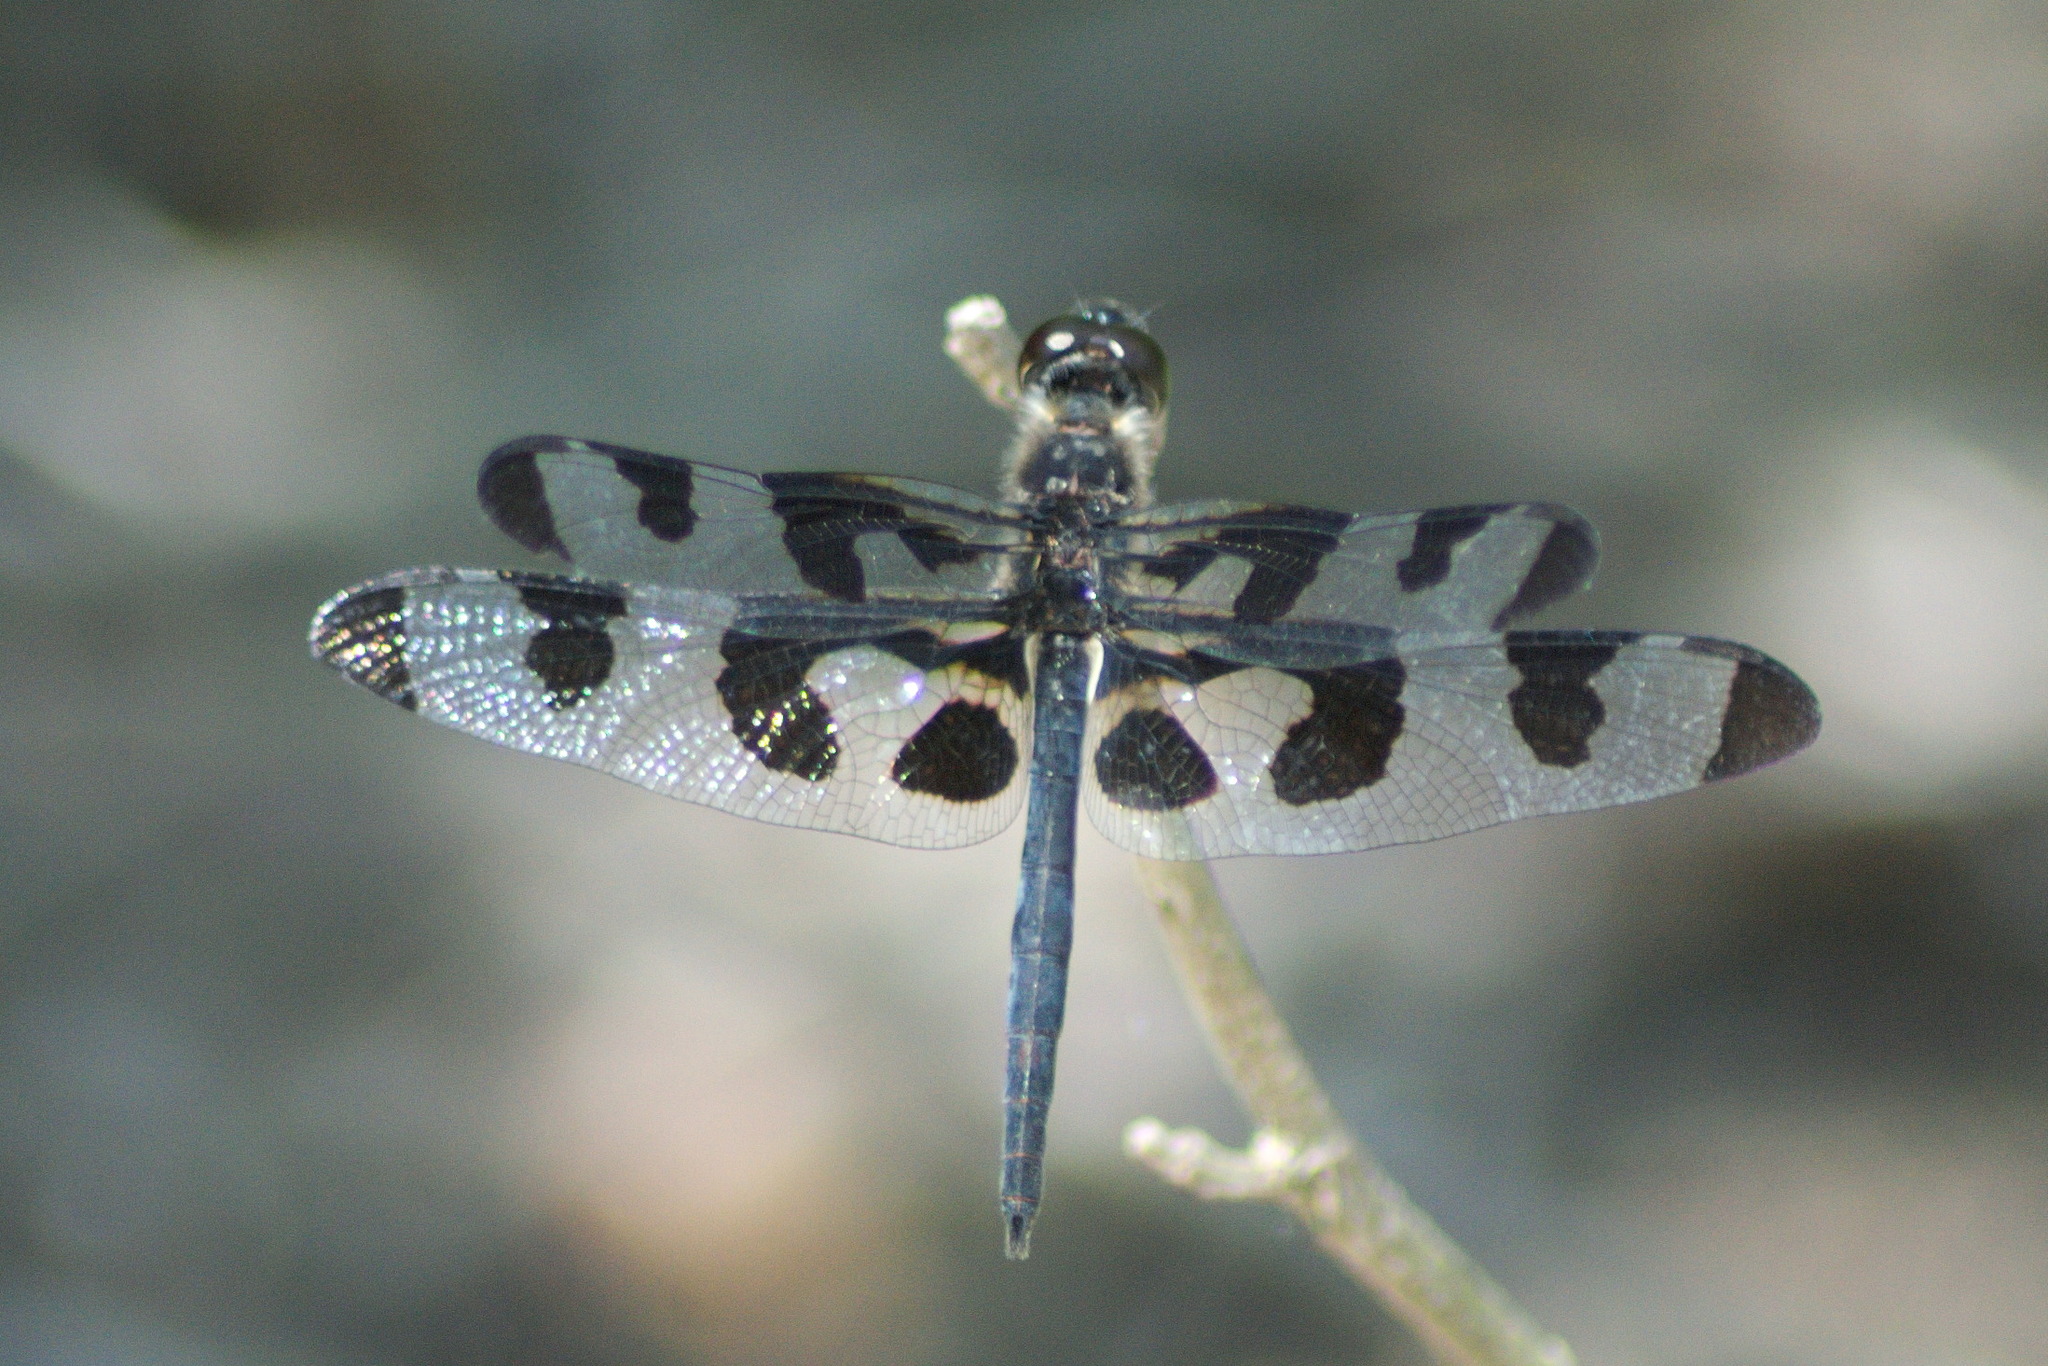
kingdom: Animalia
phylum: Arthropoda
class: Insecta
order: Odonata
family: Libellulidae
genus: Celithemis
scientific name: Celithemis fasciata
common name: Banded pennant
